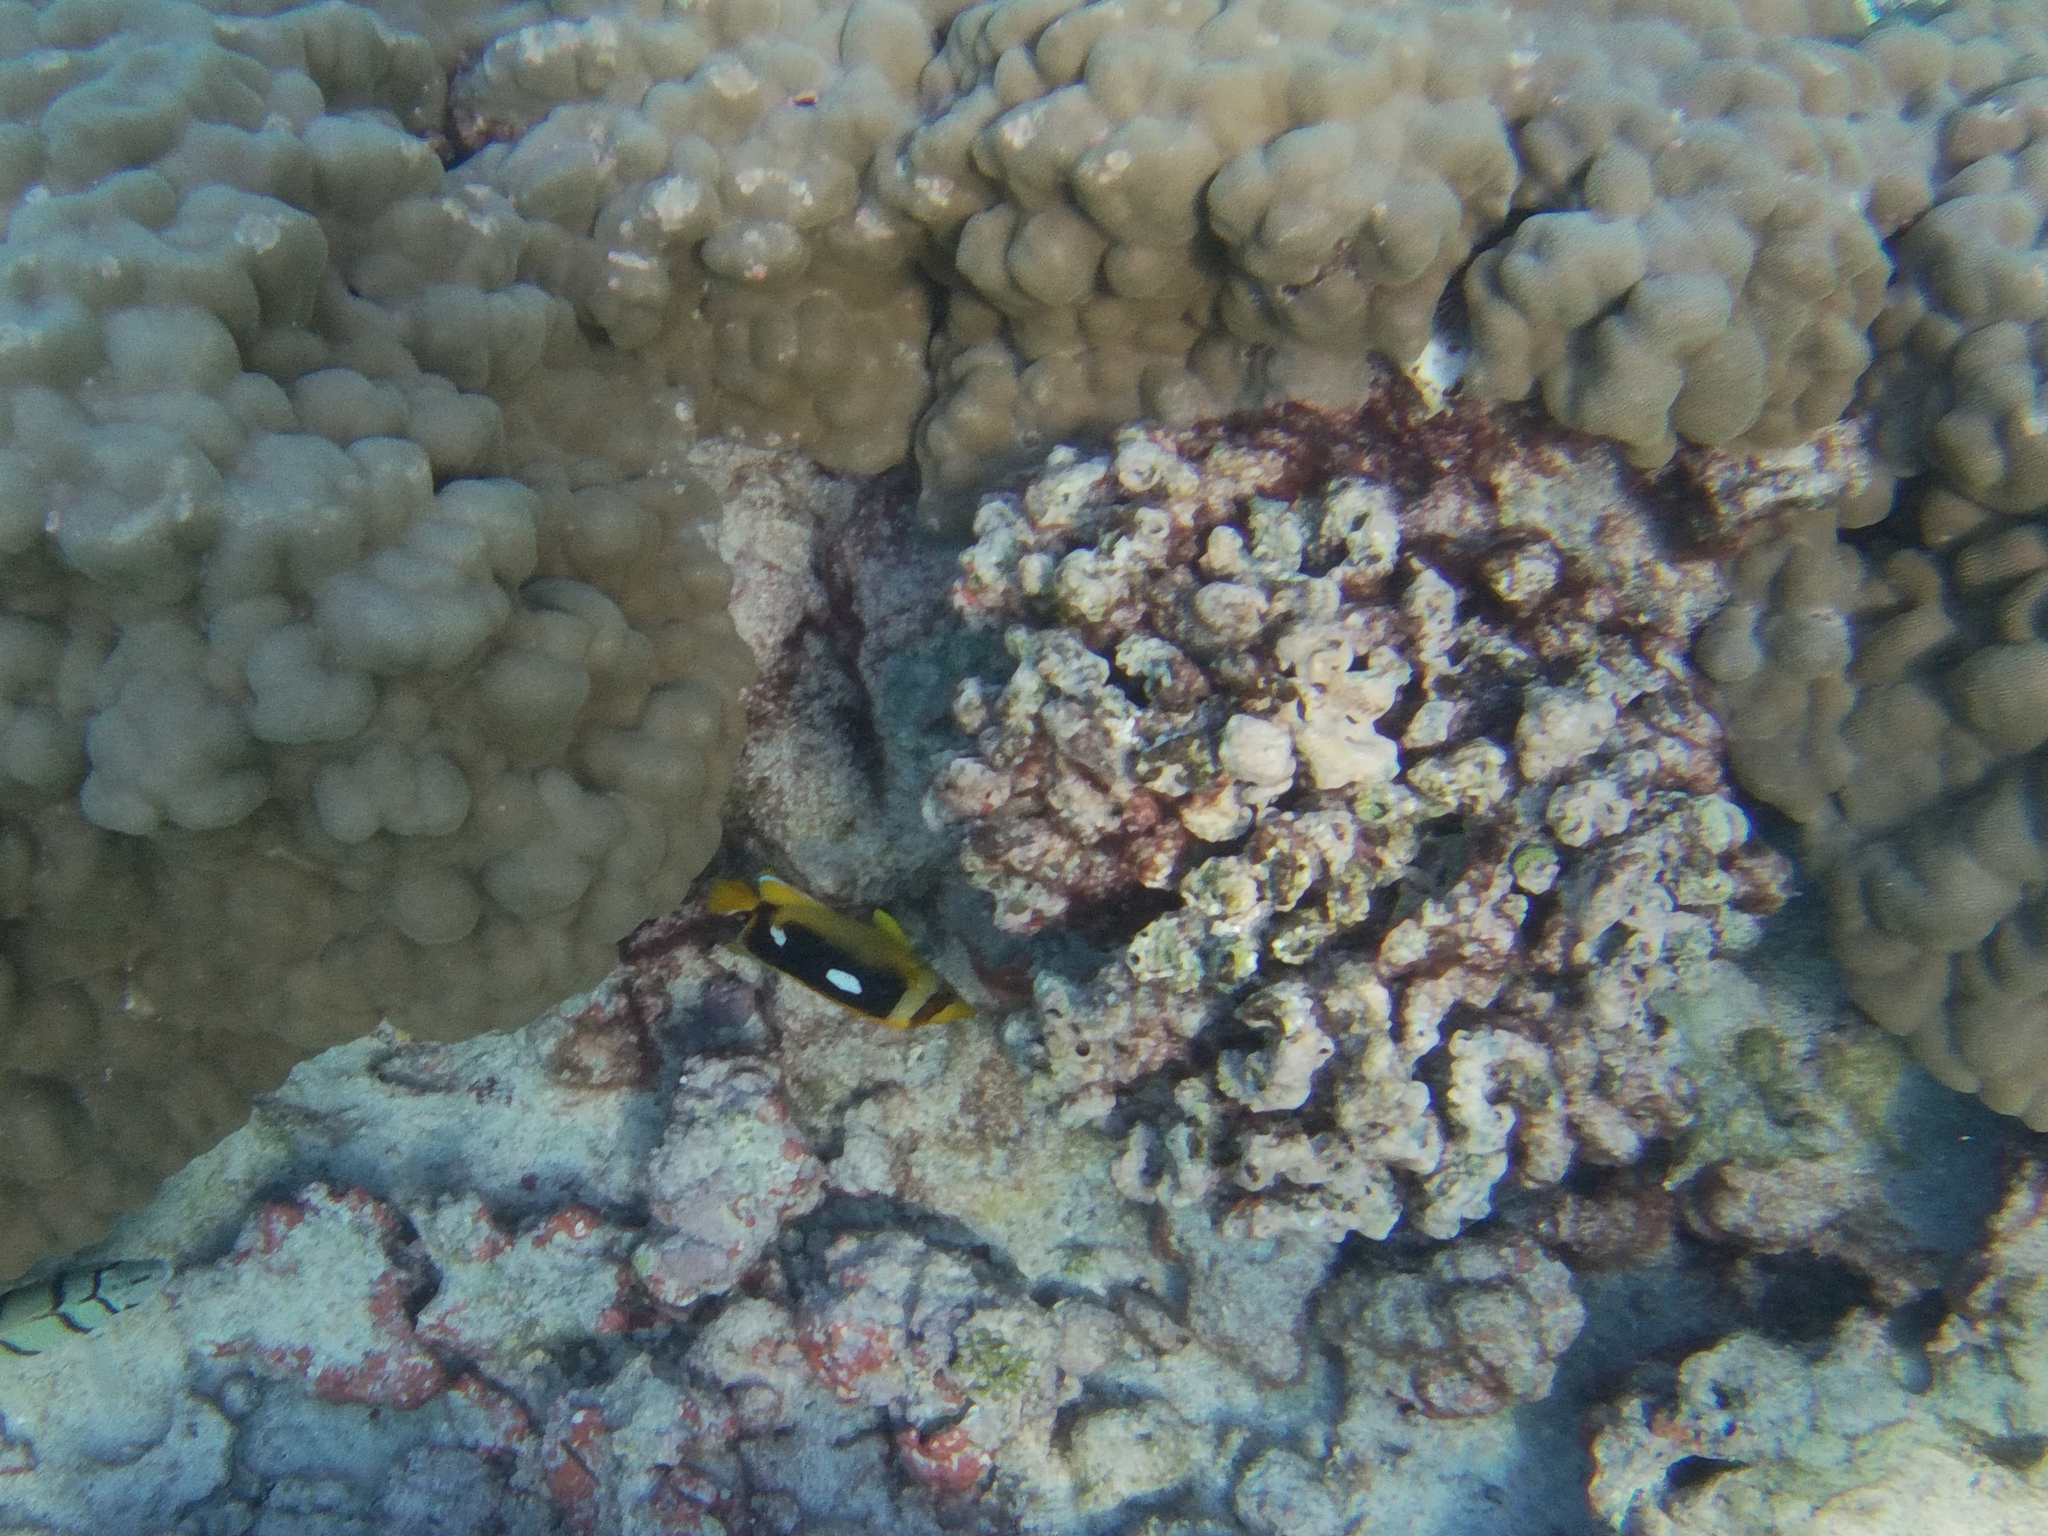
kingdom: Animalia
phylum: Chordata
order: Perciformes
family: Chaetodontidae
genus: Chaetodon
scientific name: Chaetodon quadrimaculatus
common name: Fourspot butterflyfish
